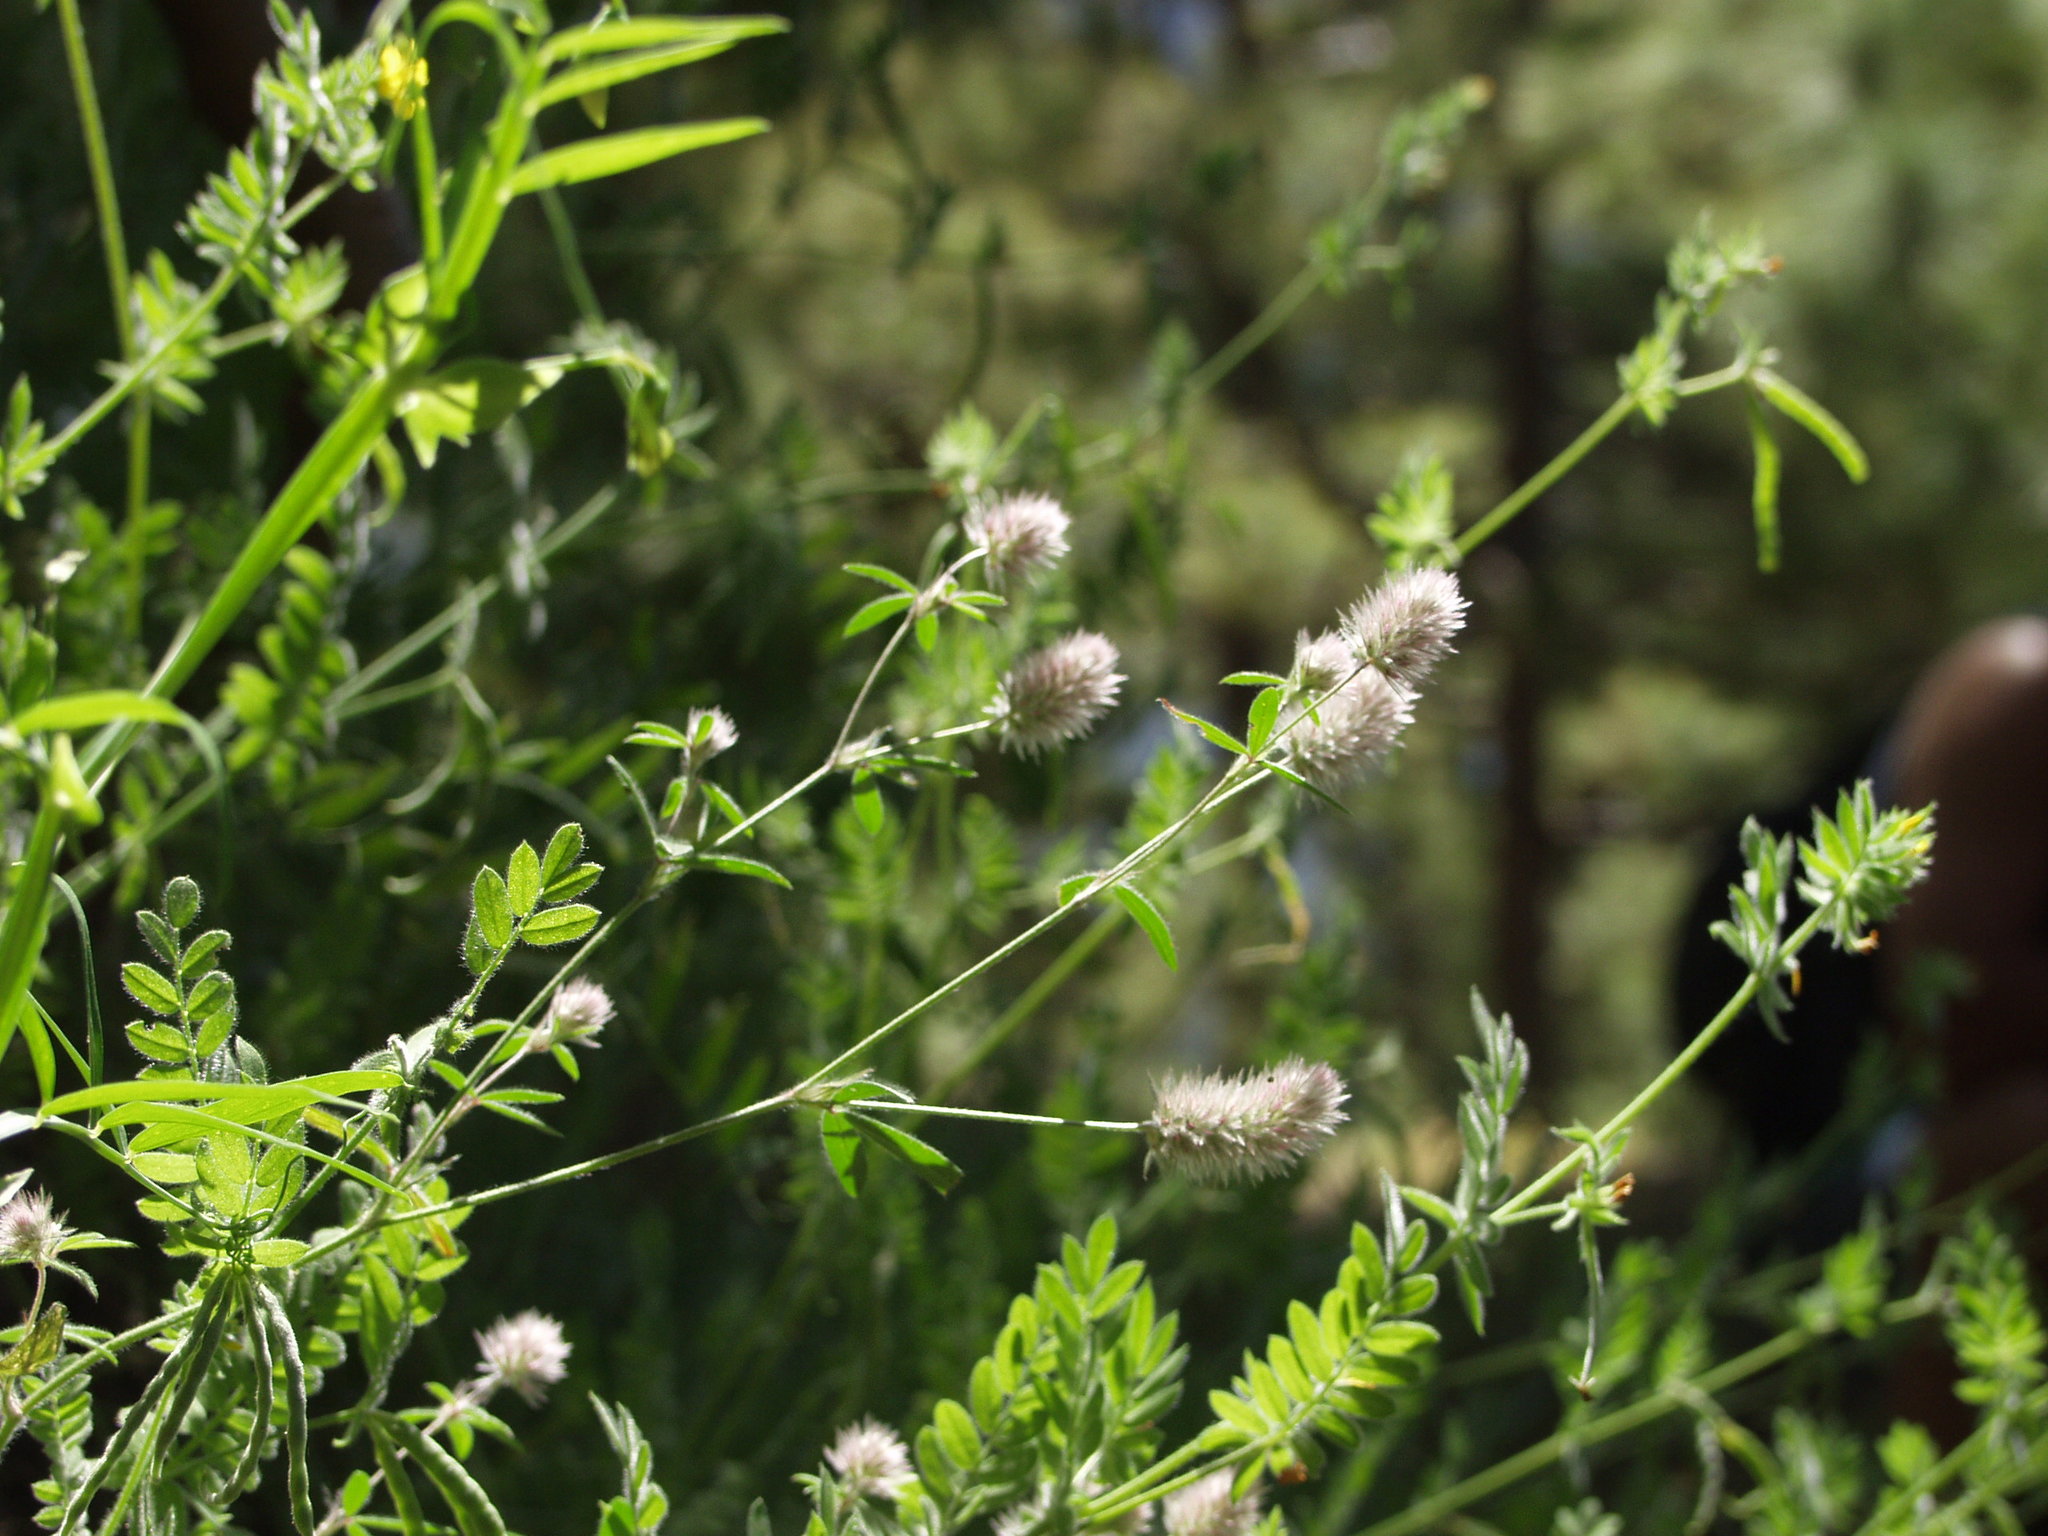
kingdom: Plantae
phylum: Tracheophyta
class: Magnoliopsida
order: Fabales
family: Fabaceae
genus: Trifolium
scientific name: Trifolium arvense
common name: Hare's-foot clover
